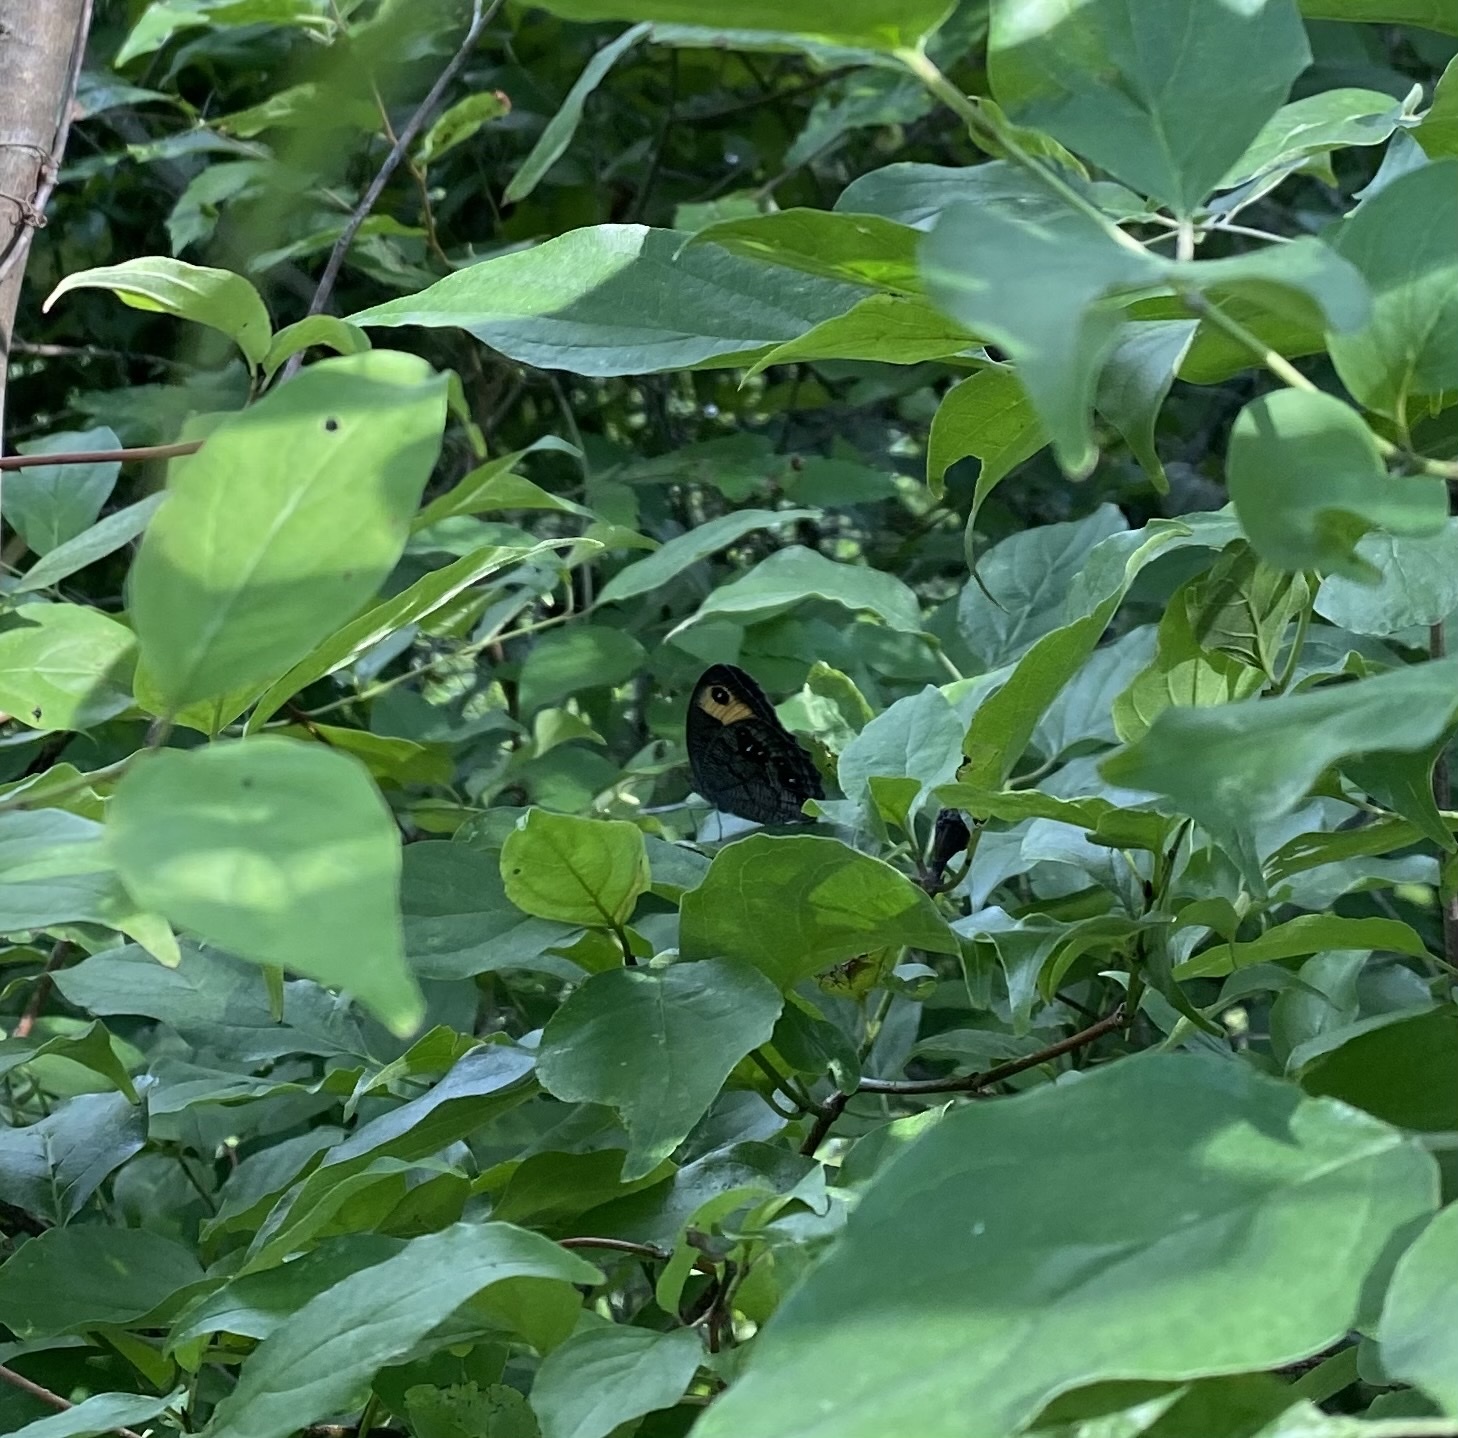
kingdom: Animalia
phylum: Arthropoda
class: Insecta
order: Lepidoptera
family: Nymphalidae
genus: Cercyonis
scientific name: Cercyonis pegala
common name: Common wood-nymph
